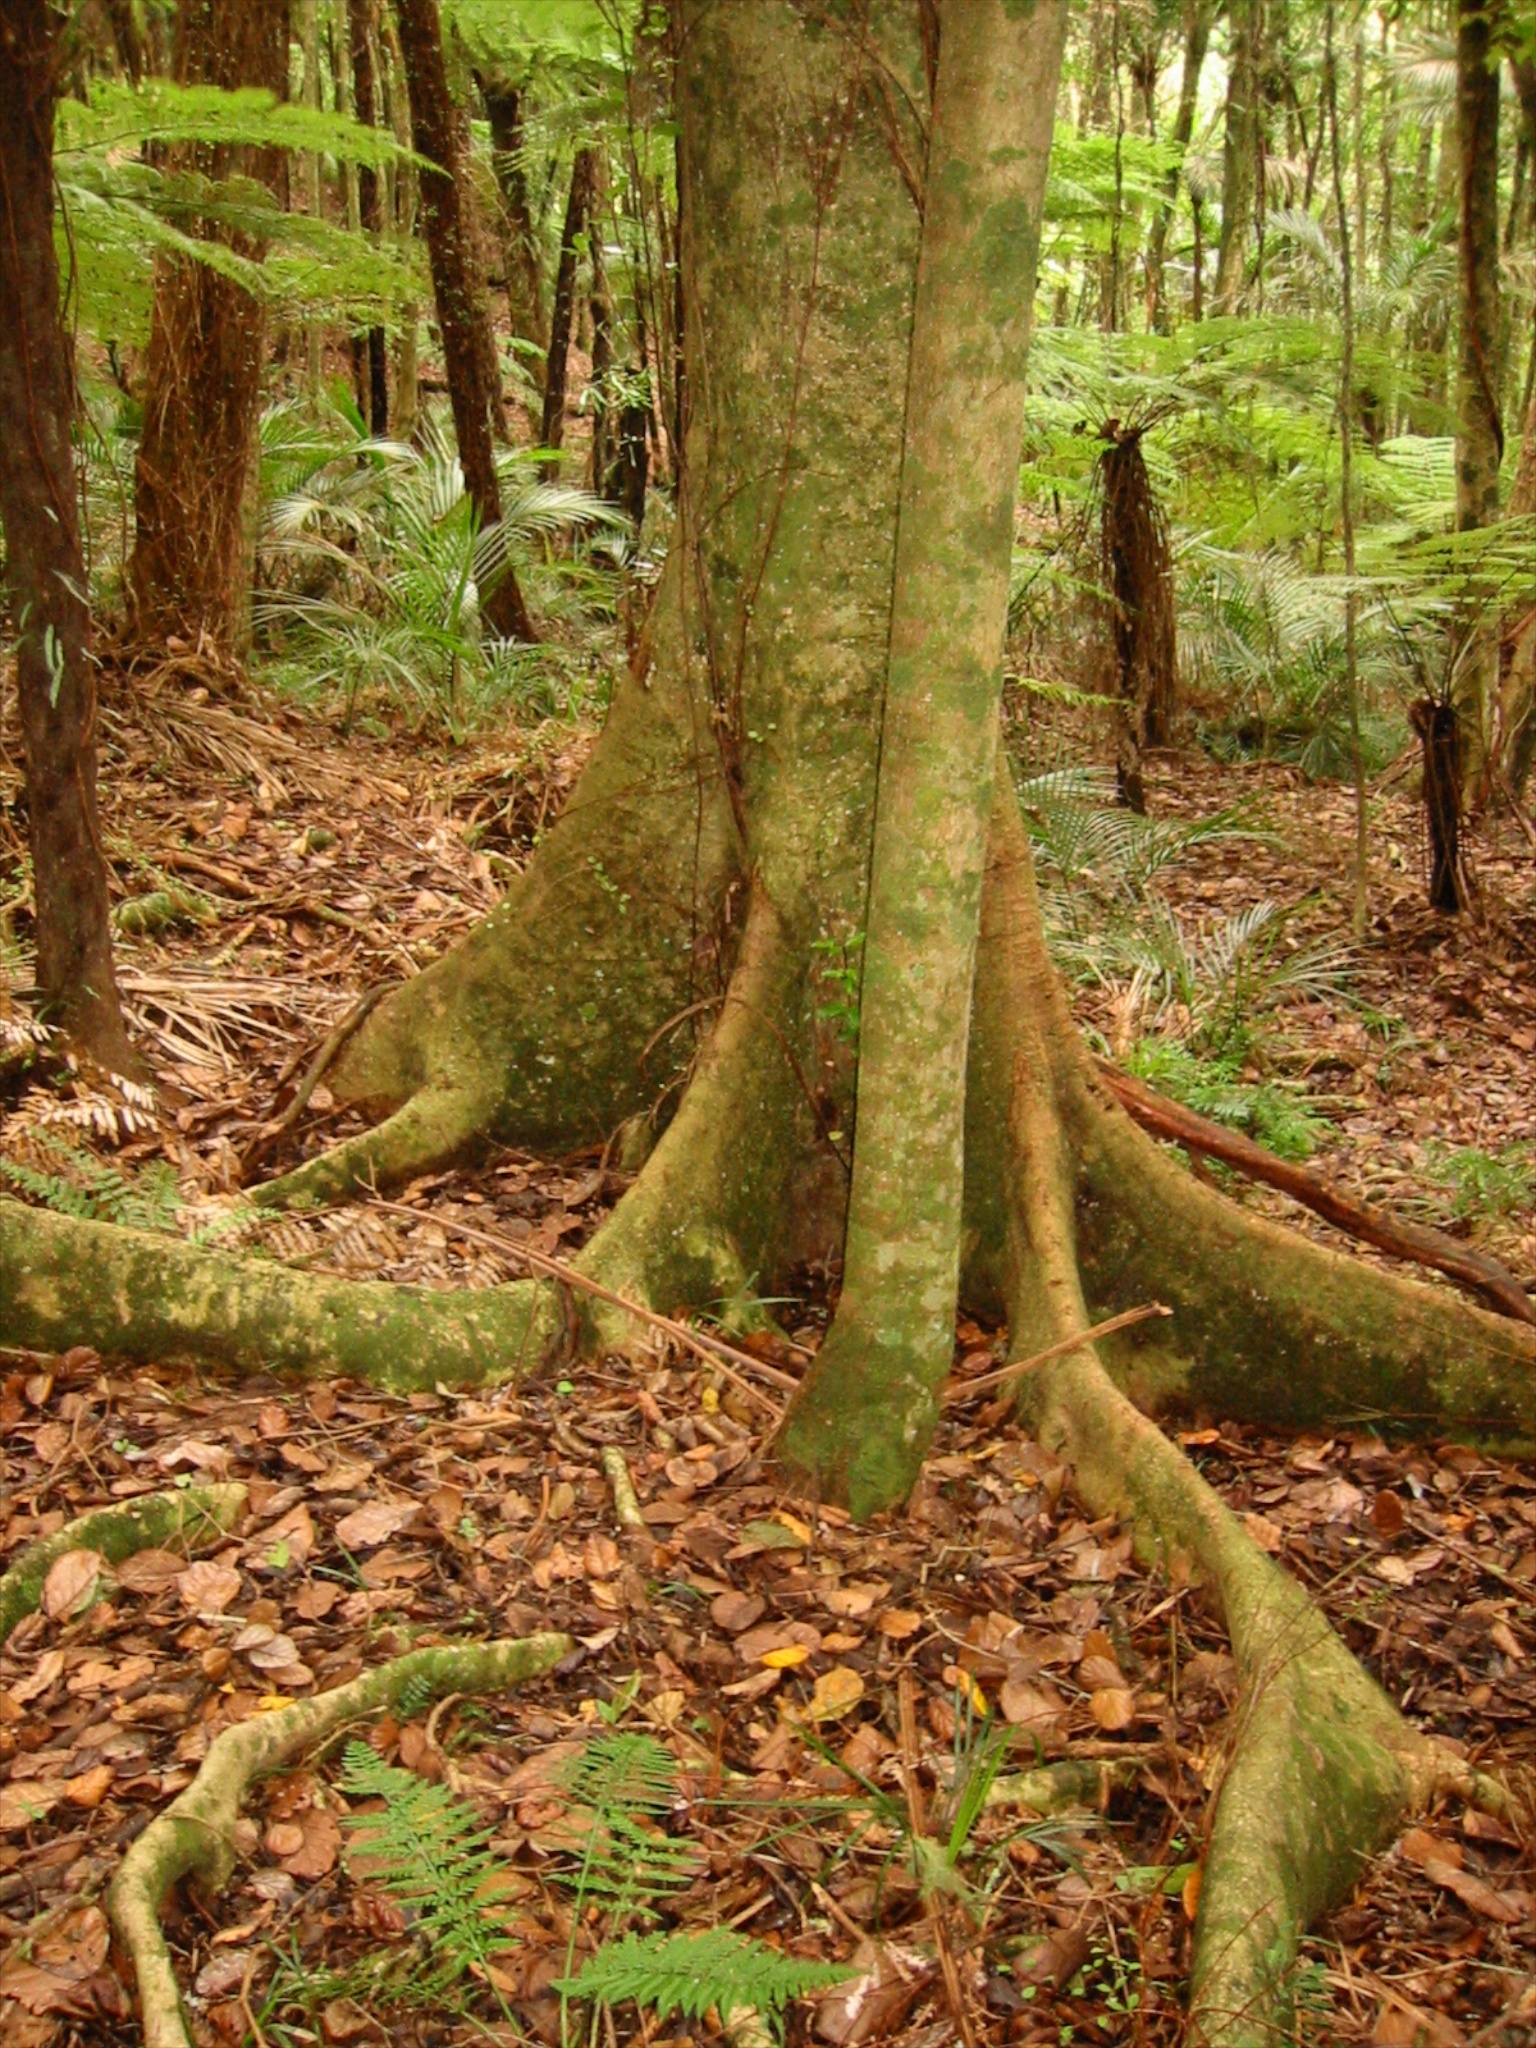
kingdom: Plantae
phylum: Tracheophyta
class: Magnoliopsida
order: Laurales
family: Atherospermataceae
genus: Laurelia
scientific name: Laurelia novae-zelandiae
